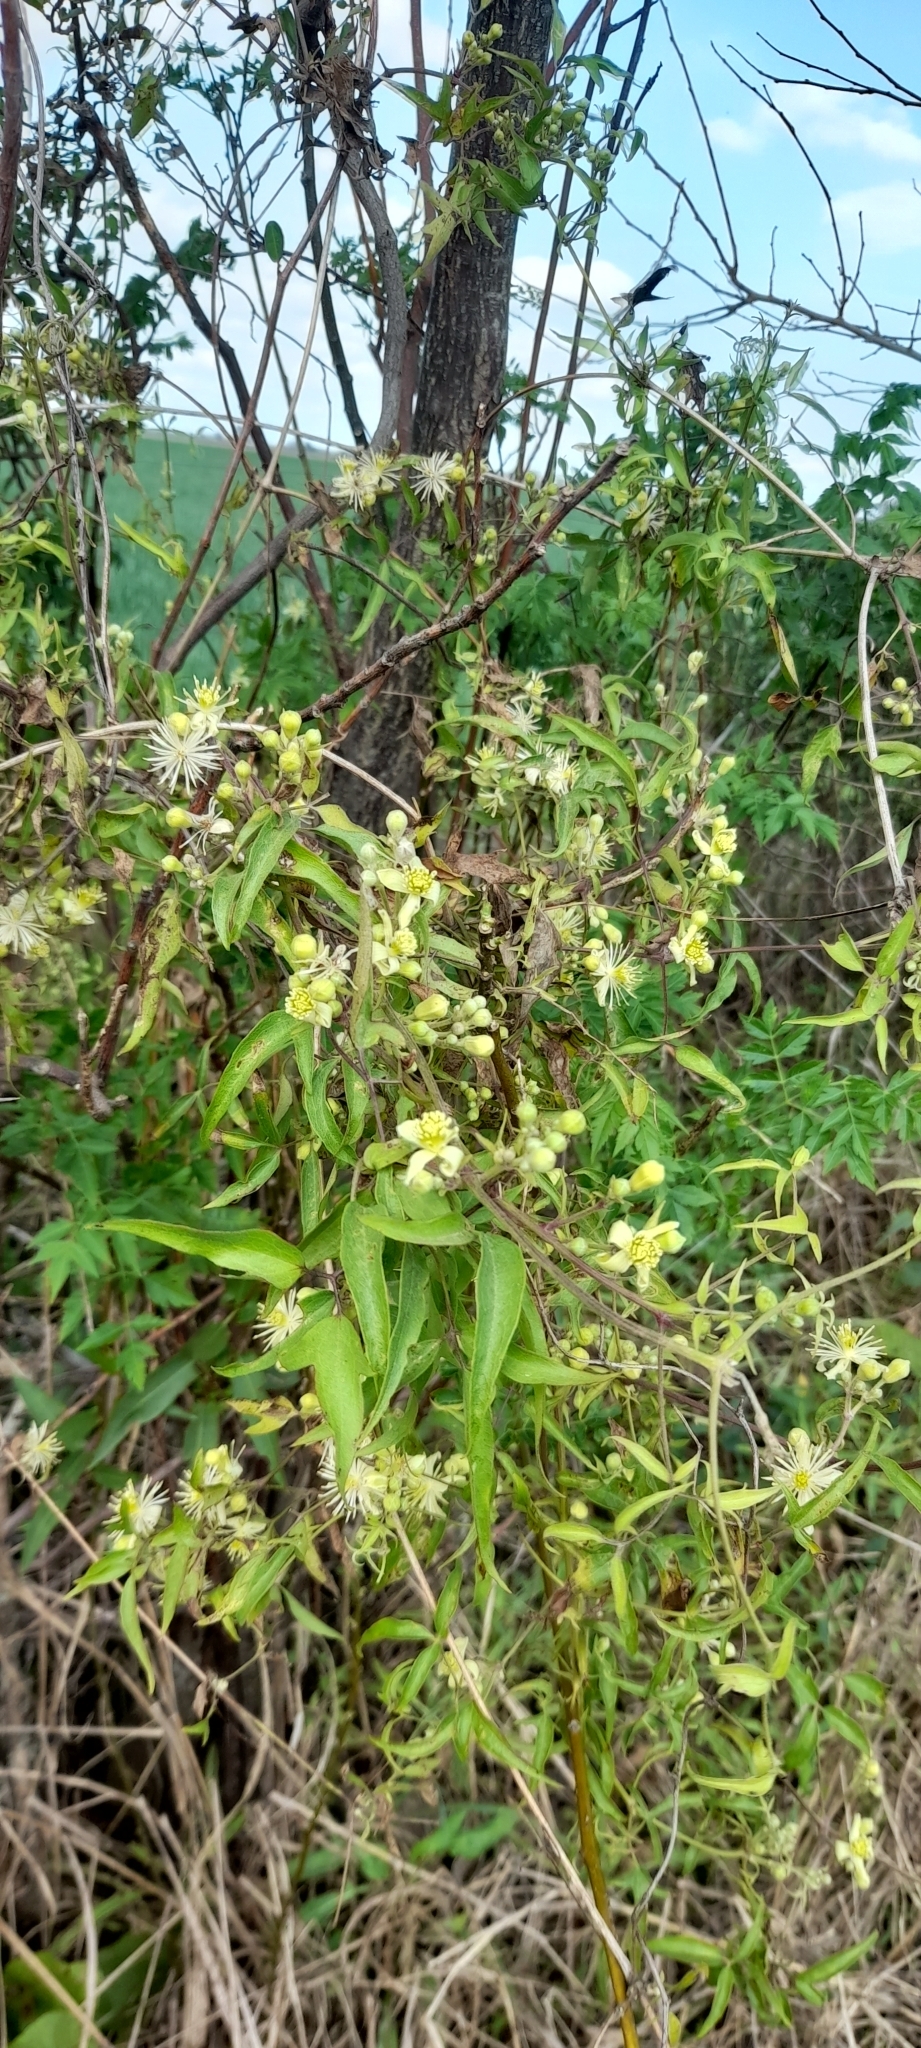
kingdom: Plantae
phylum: Tracheophyta
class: Magnoliopsida
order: Ranunculales
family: Ranunculaceae
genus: Clematis
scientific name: Clematis montevidensis
